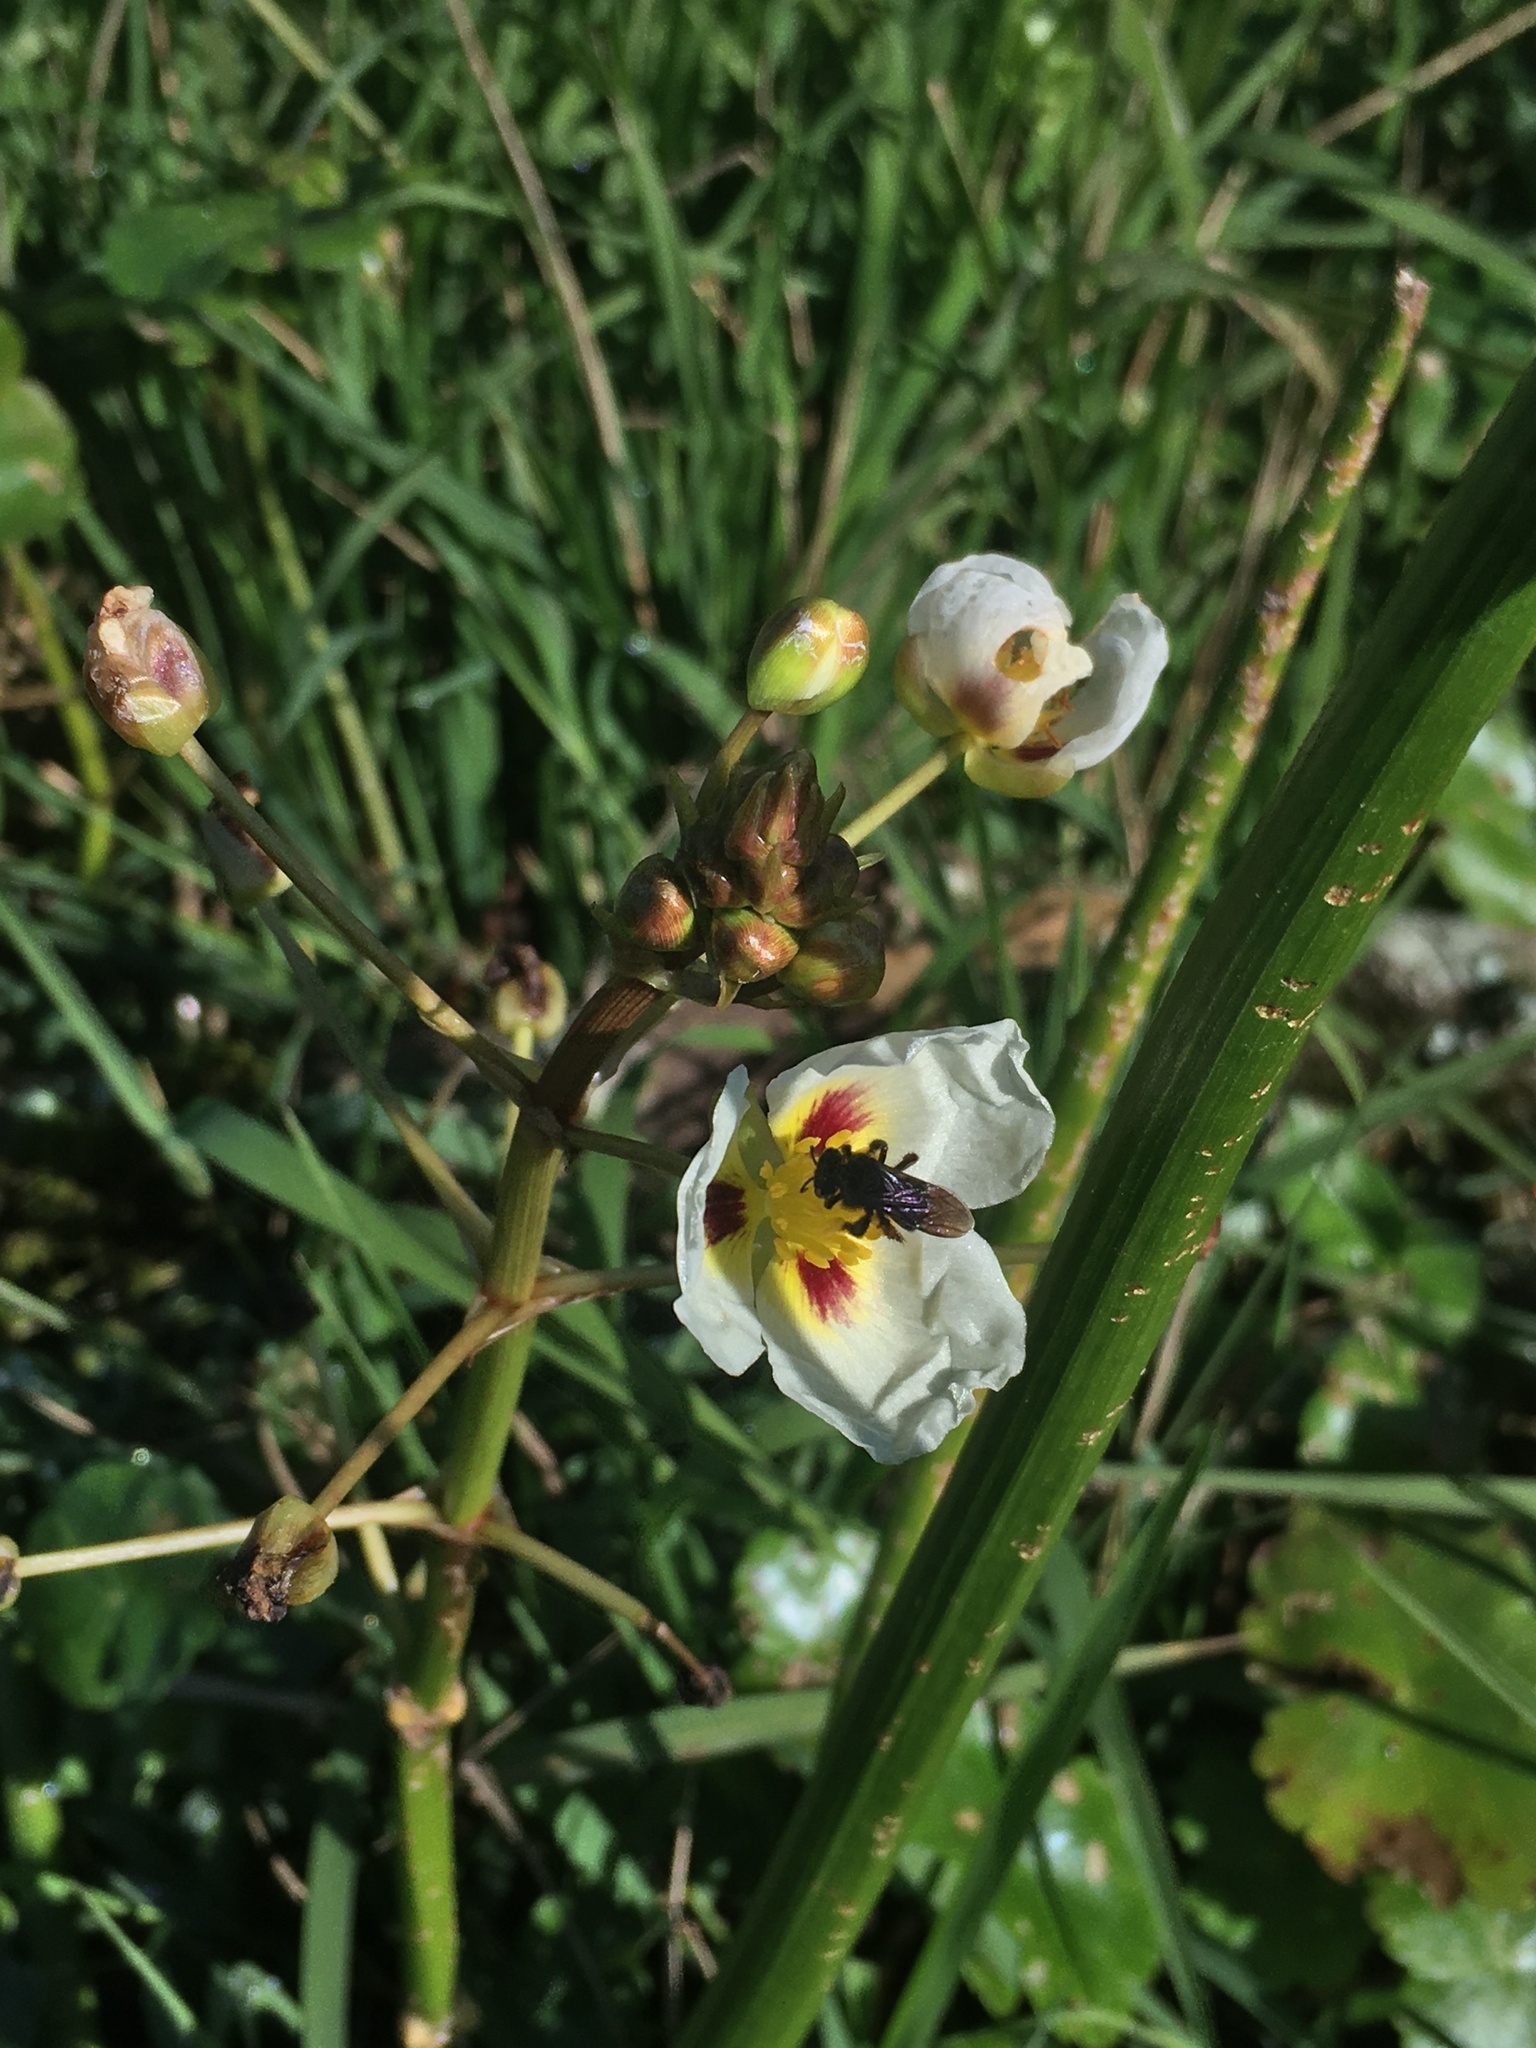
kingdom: Animalia
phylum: Arthropoda
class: Insecta
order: Hymenoptera
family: Apidae
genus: Trigona
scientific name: Trigona spinipes
